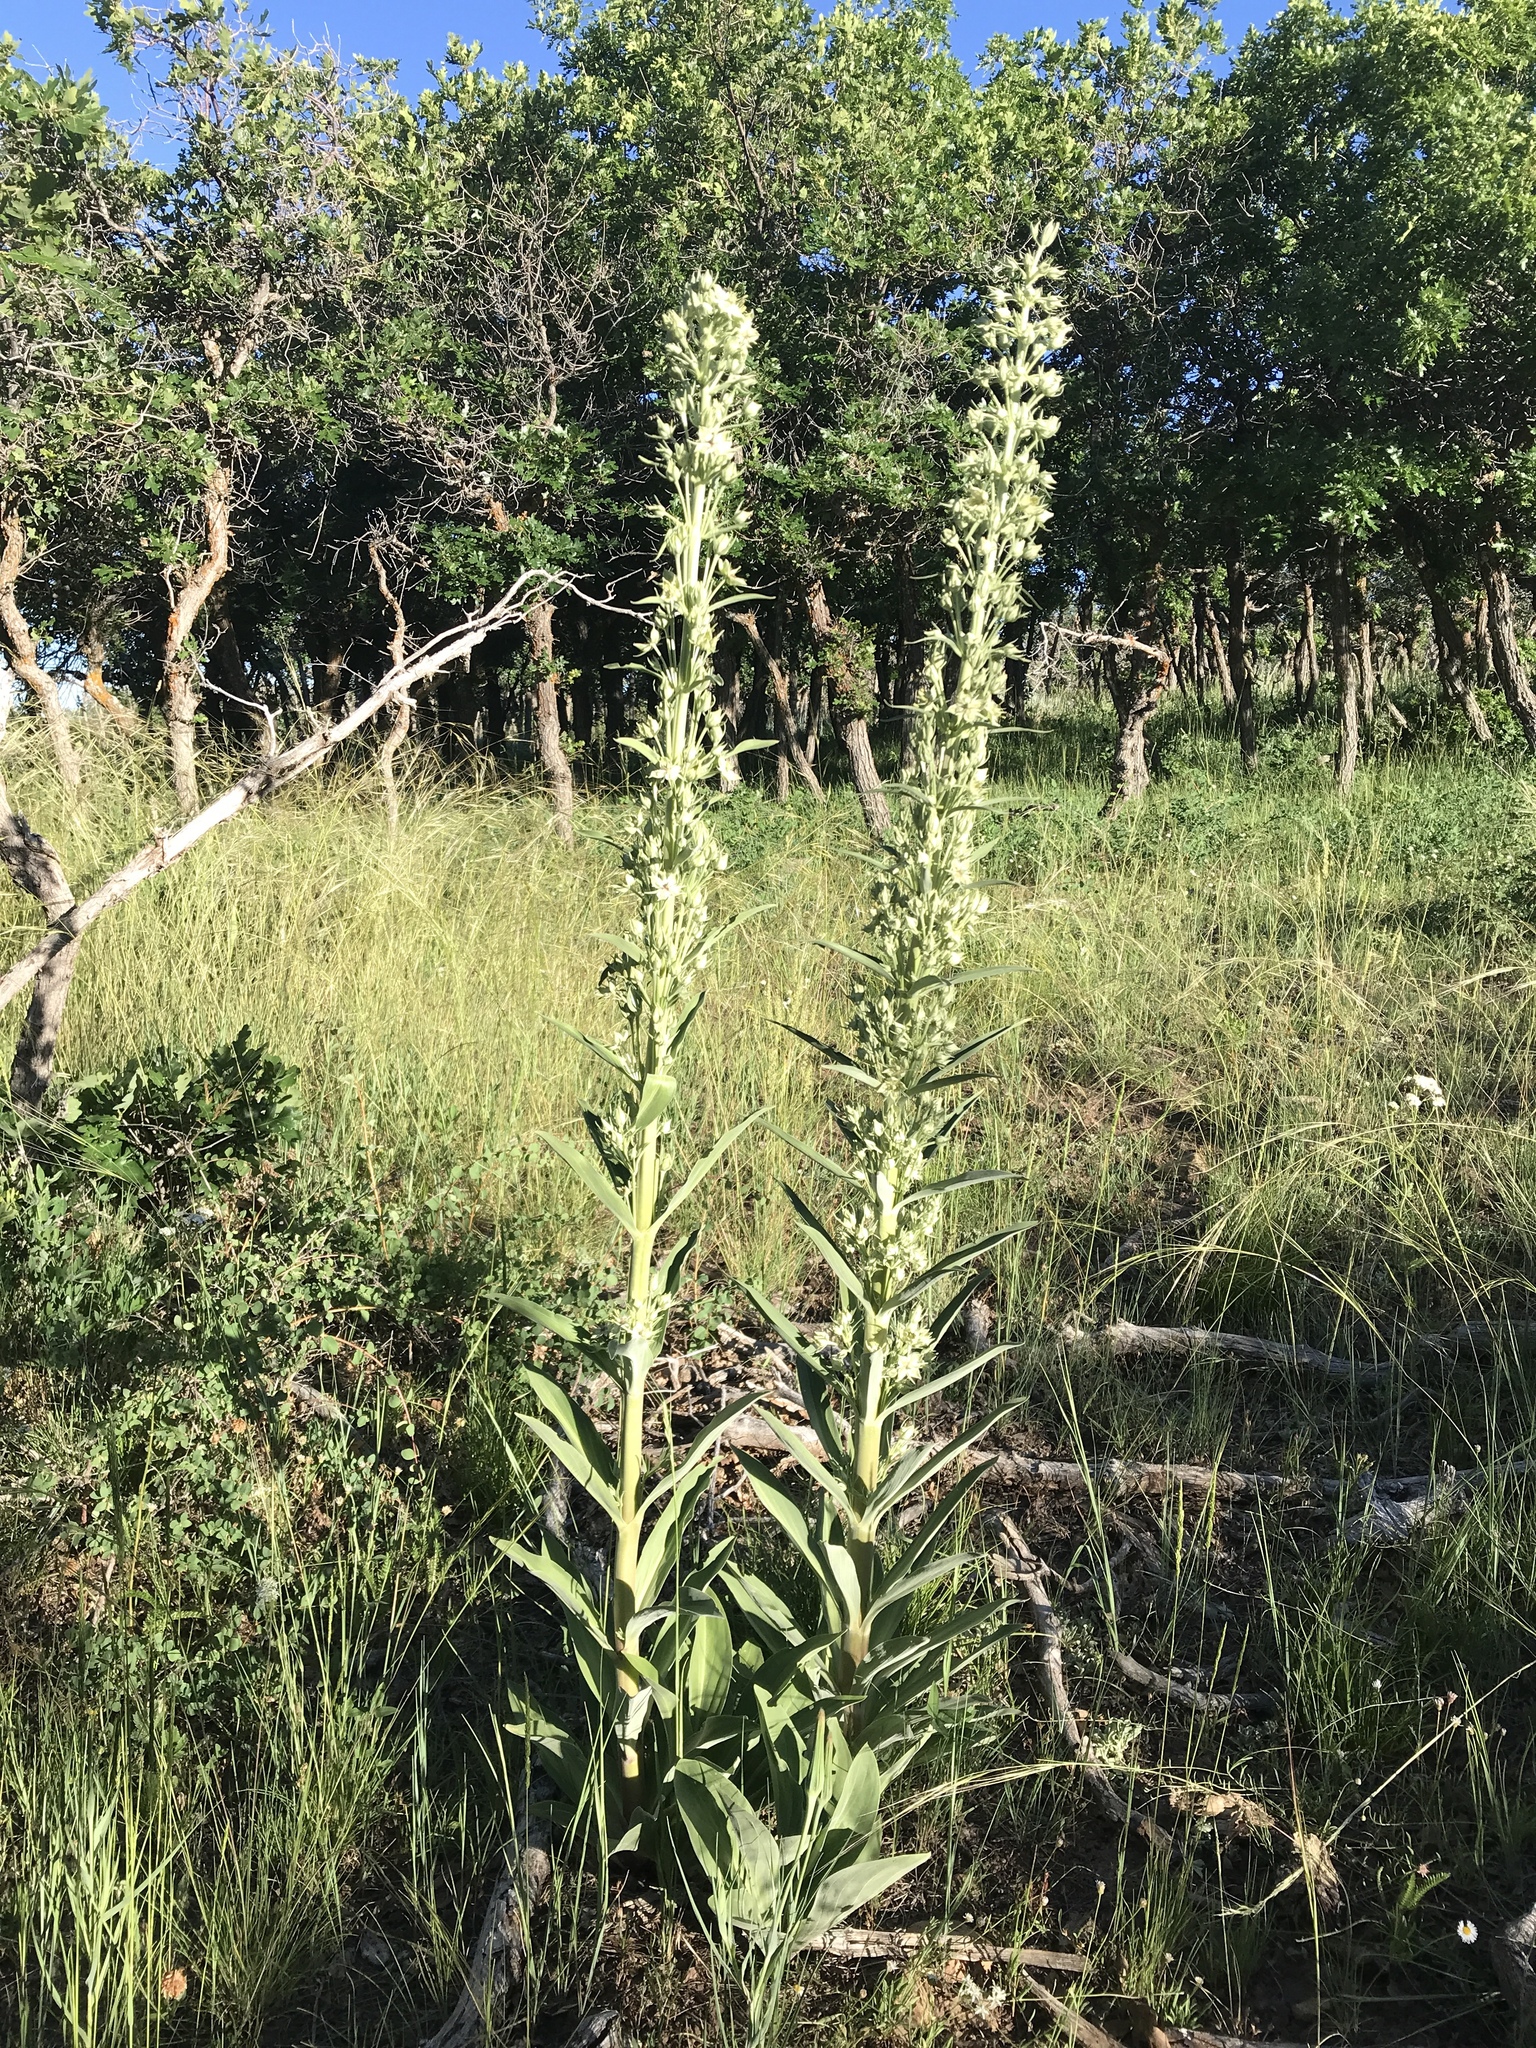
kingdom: Plantae
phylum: Tracheophyta
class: Magnoliopsida
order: Gentianales
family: Gentianaceae
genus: Frasera
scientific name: Frasera speciosa
